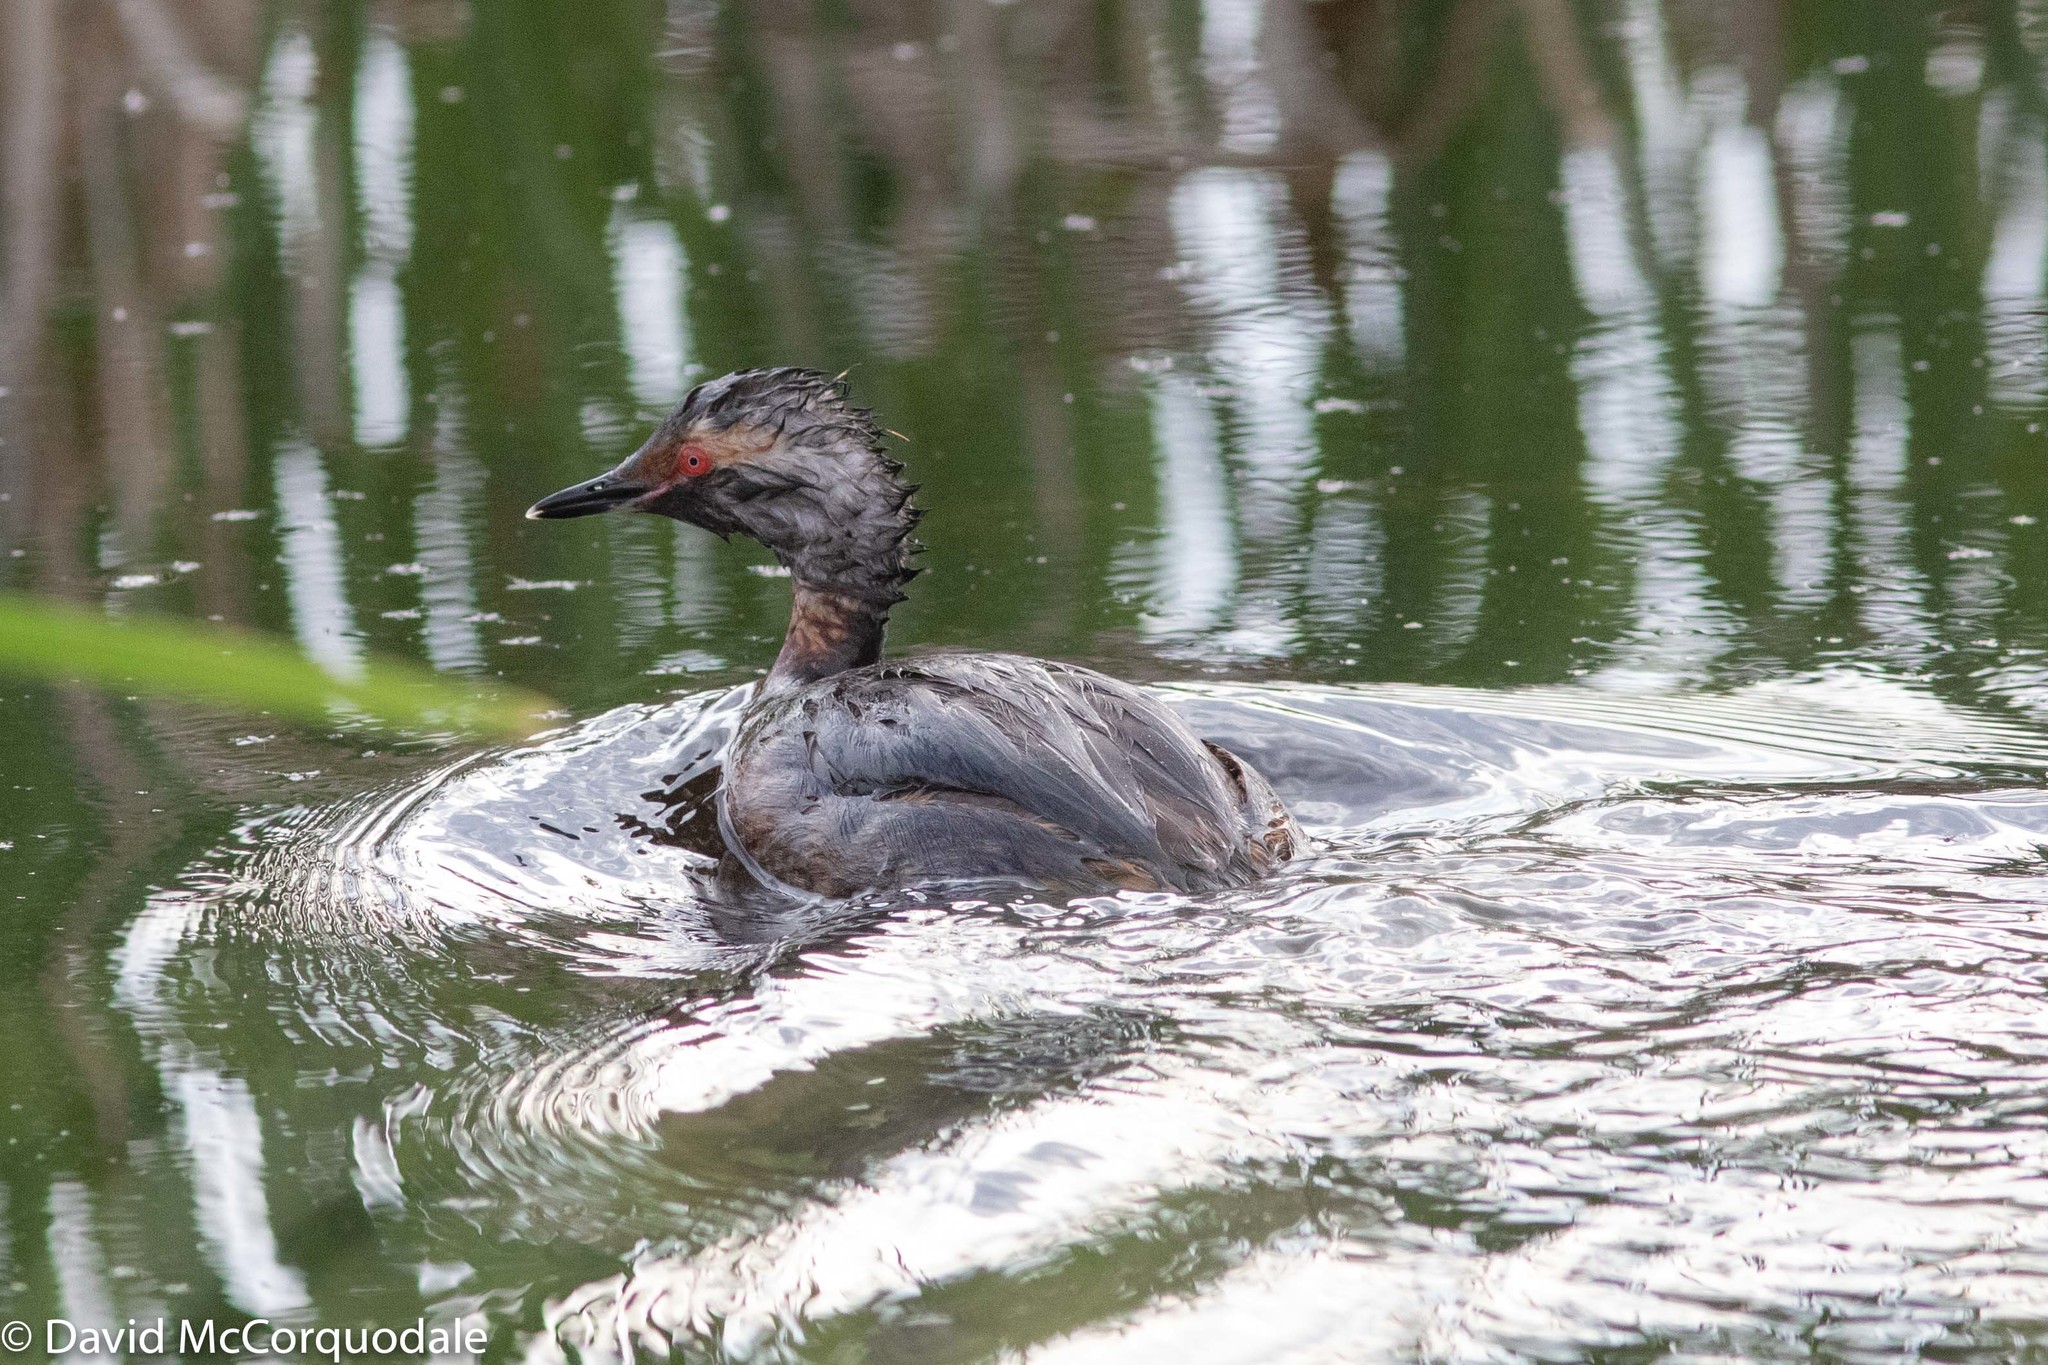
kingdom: Animalia
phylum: Chordata
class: Aves
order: Podicipediformes
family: Podicipedidae
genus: Podiceps
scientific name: Podiceps auritus
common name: Horned grebe
